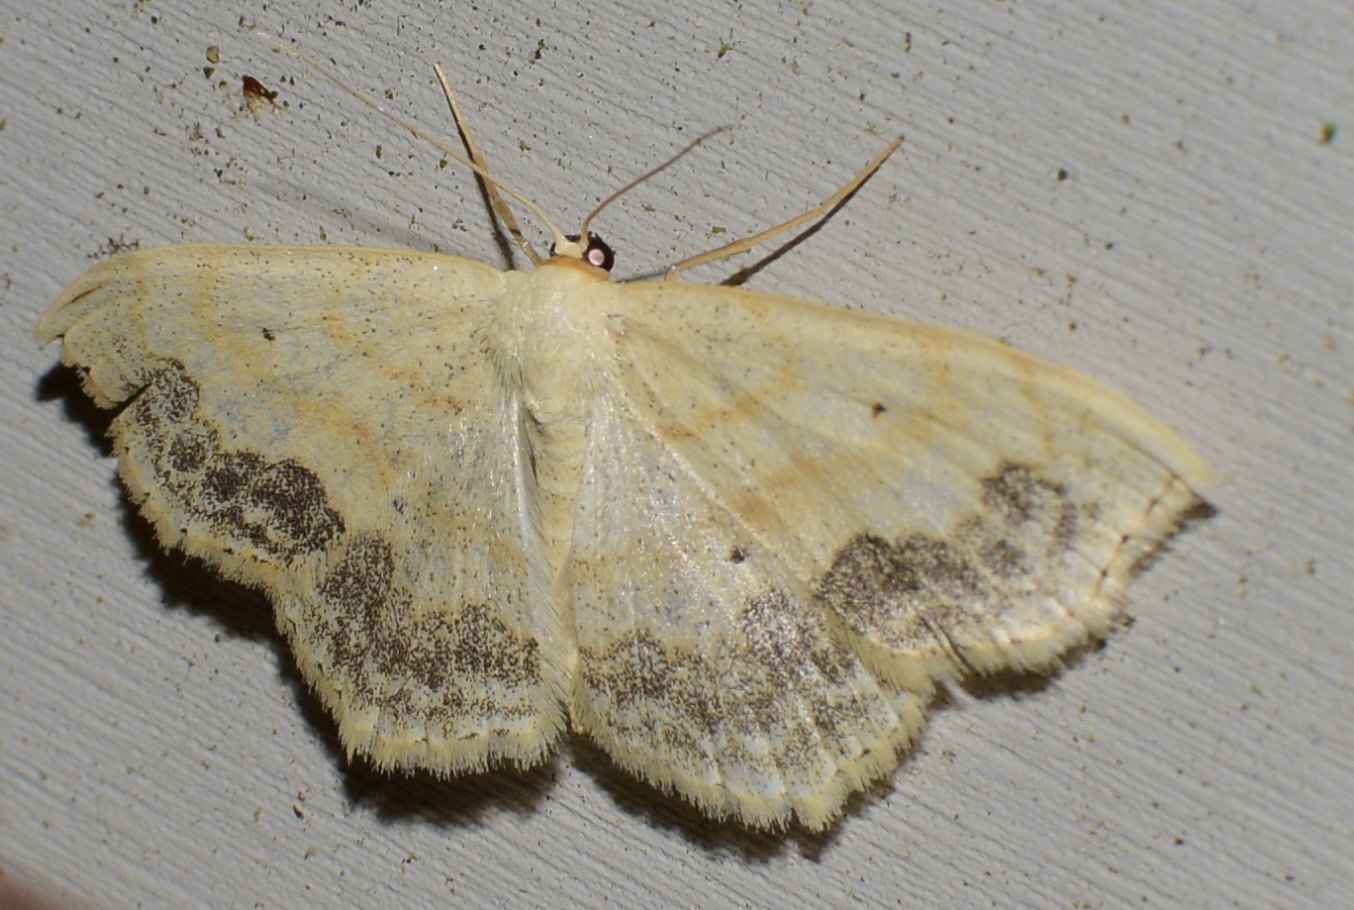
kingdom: Animalia
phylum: Arthropoda
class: Insecta
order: Lepidoptera
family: Geometridae
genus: Scopula
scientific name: Scopula limboundata
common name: Large lace border
